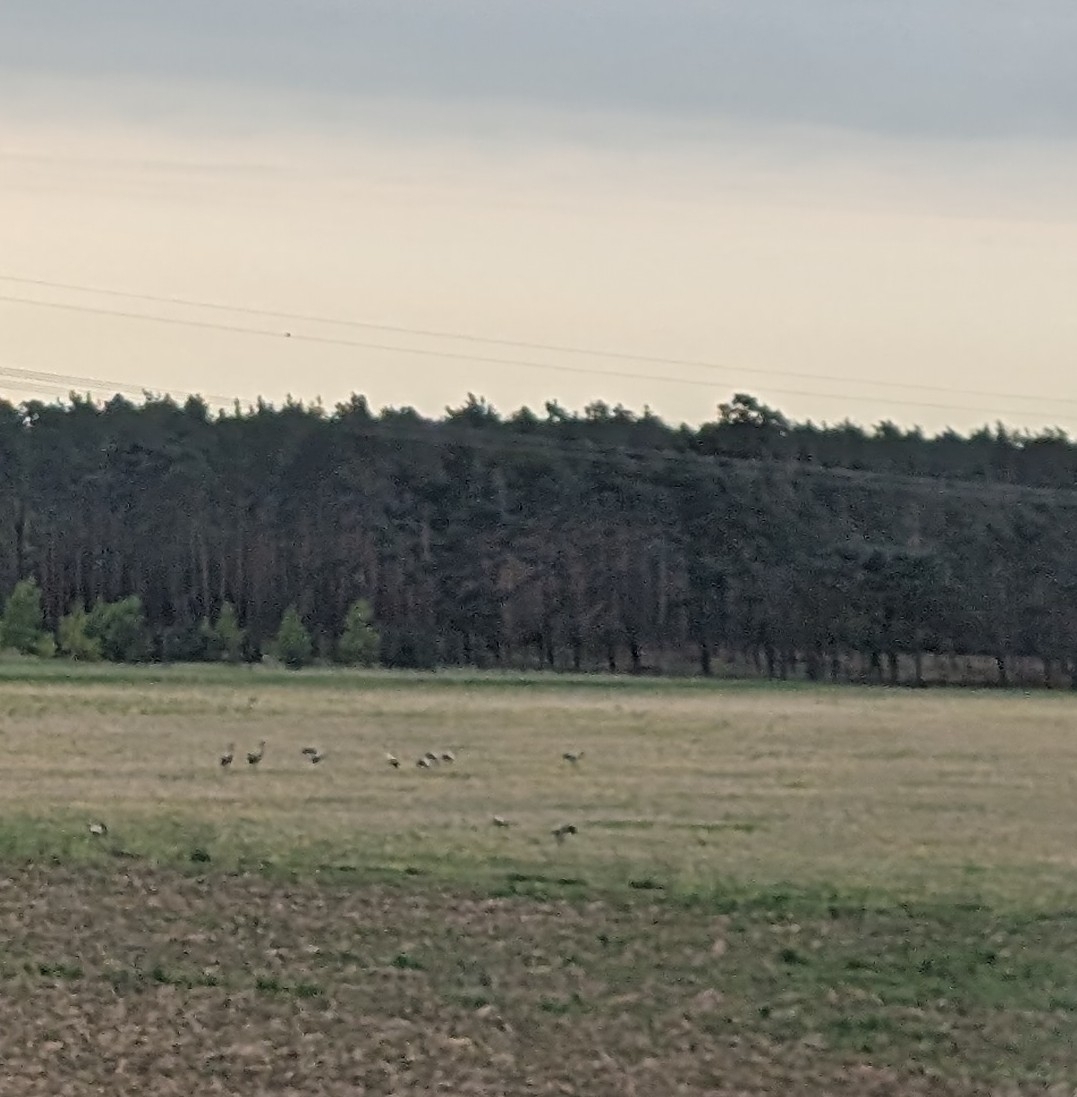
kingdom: Animalia
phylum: Chordata
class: Aves
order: Gruiformes
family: Gruidae
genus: Grus
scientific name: Grus grus
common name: Common crane
